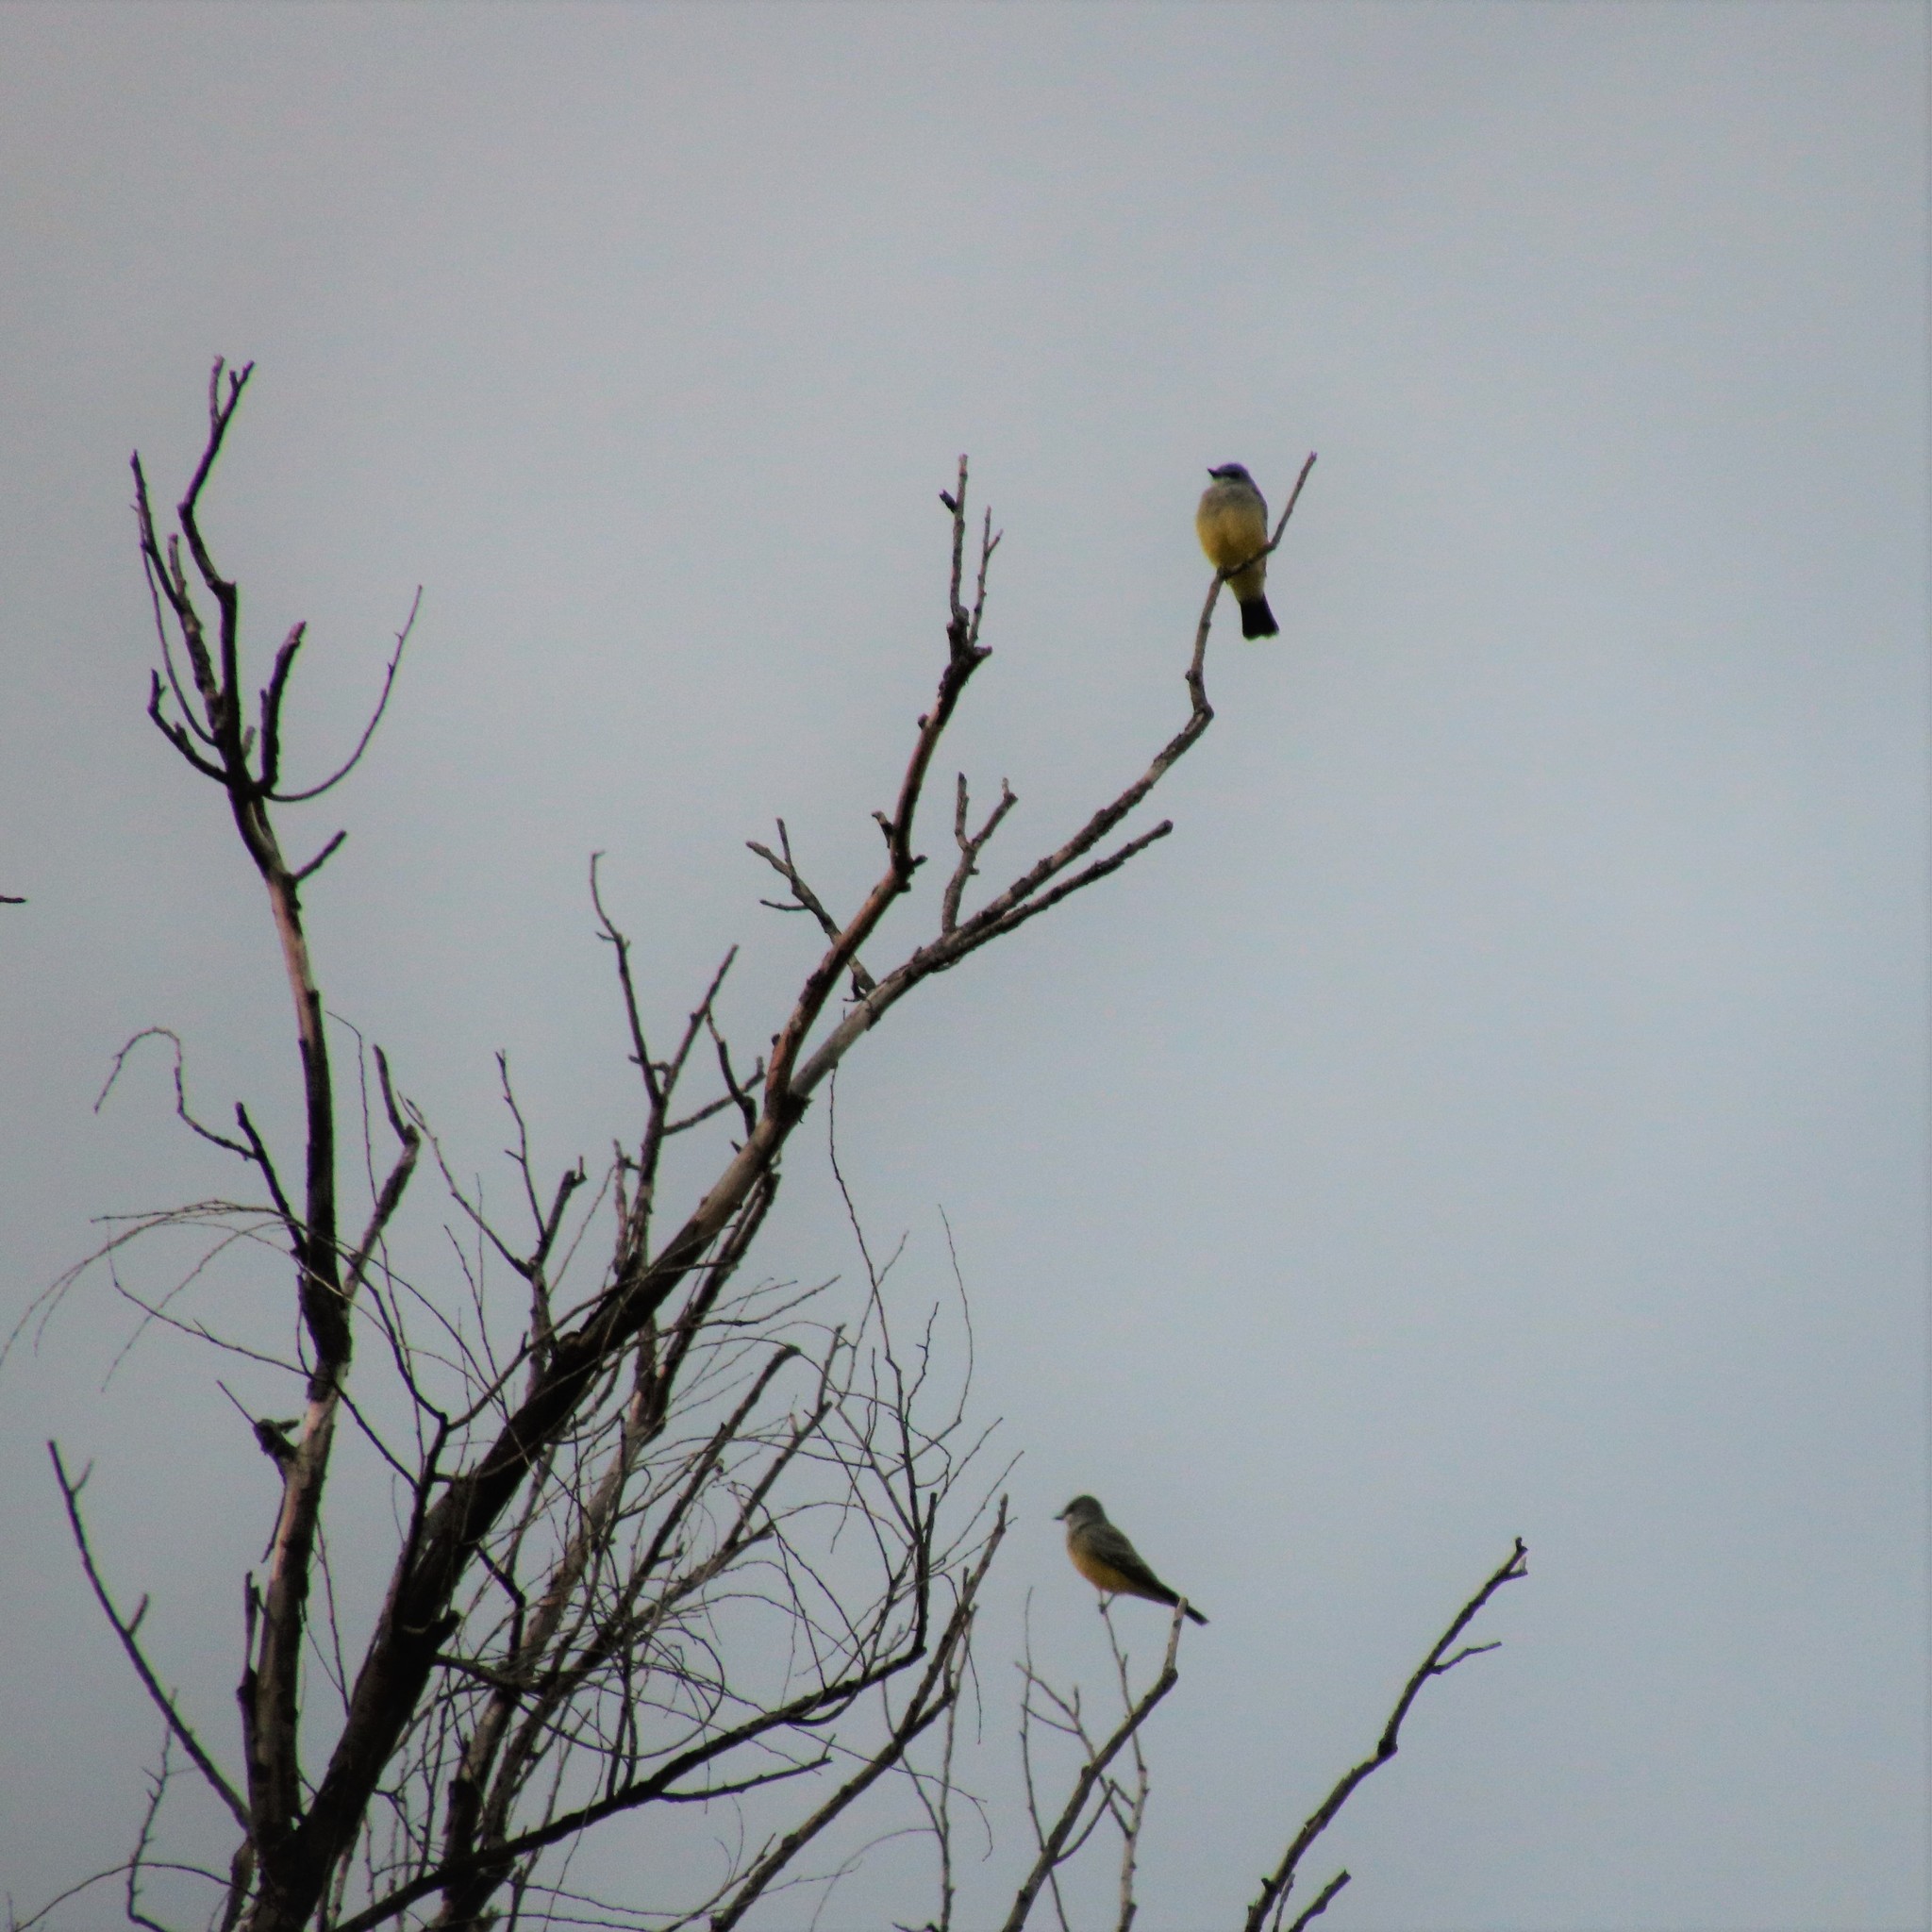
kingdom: Animalia
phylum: Chordata
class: Aves
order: Passeriformes
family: Tyrannidae
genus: Tyrannus
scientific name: Tyrannus vociferans
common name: Cassin's kingbird
